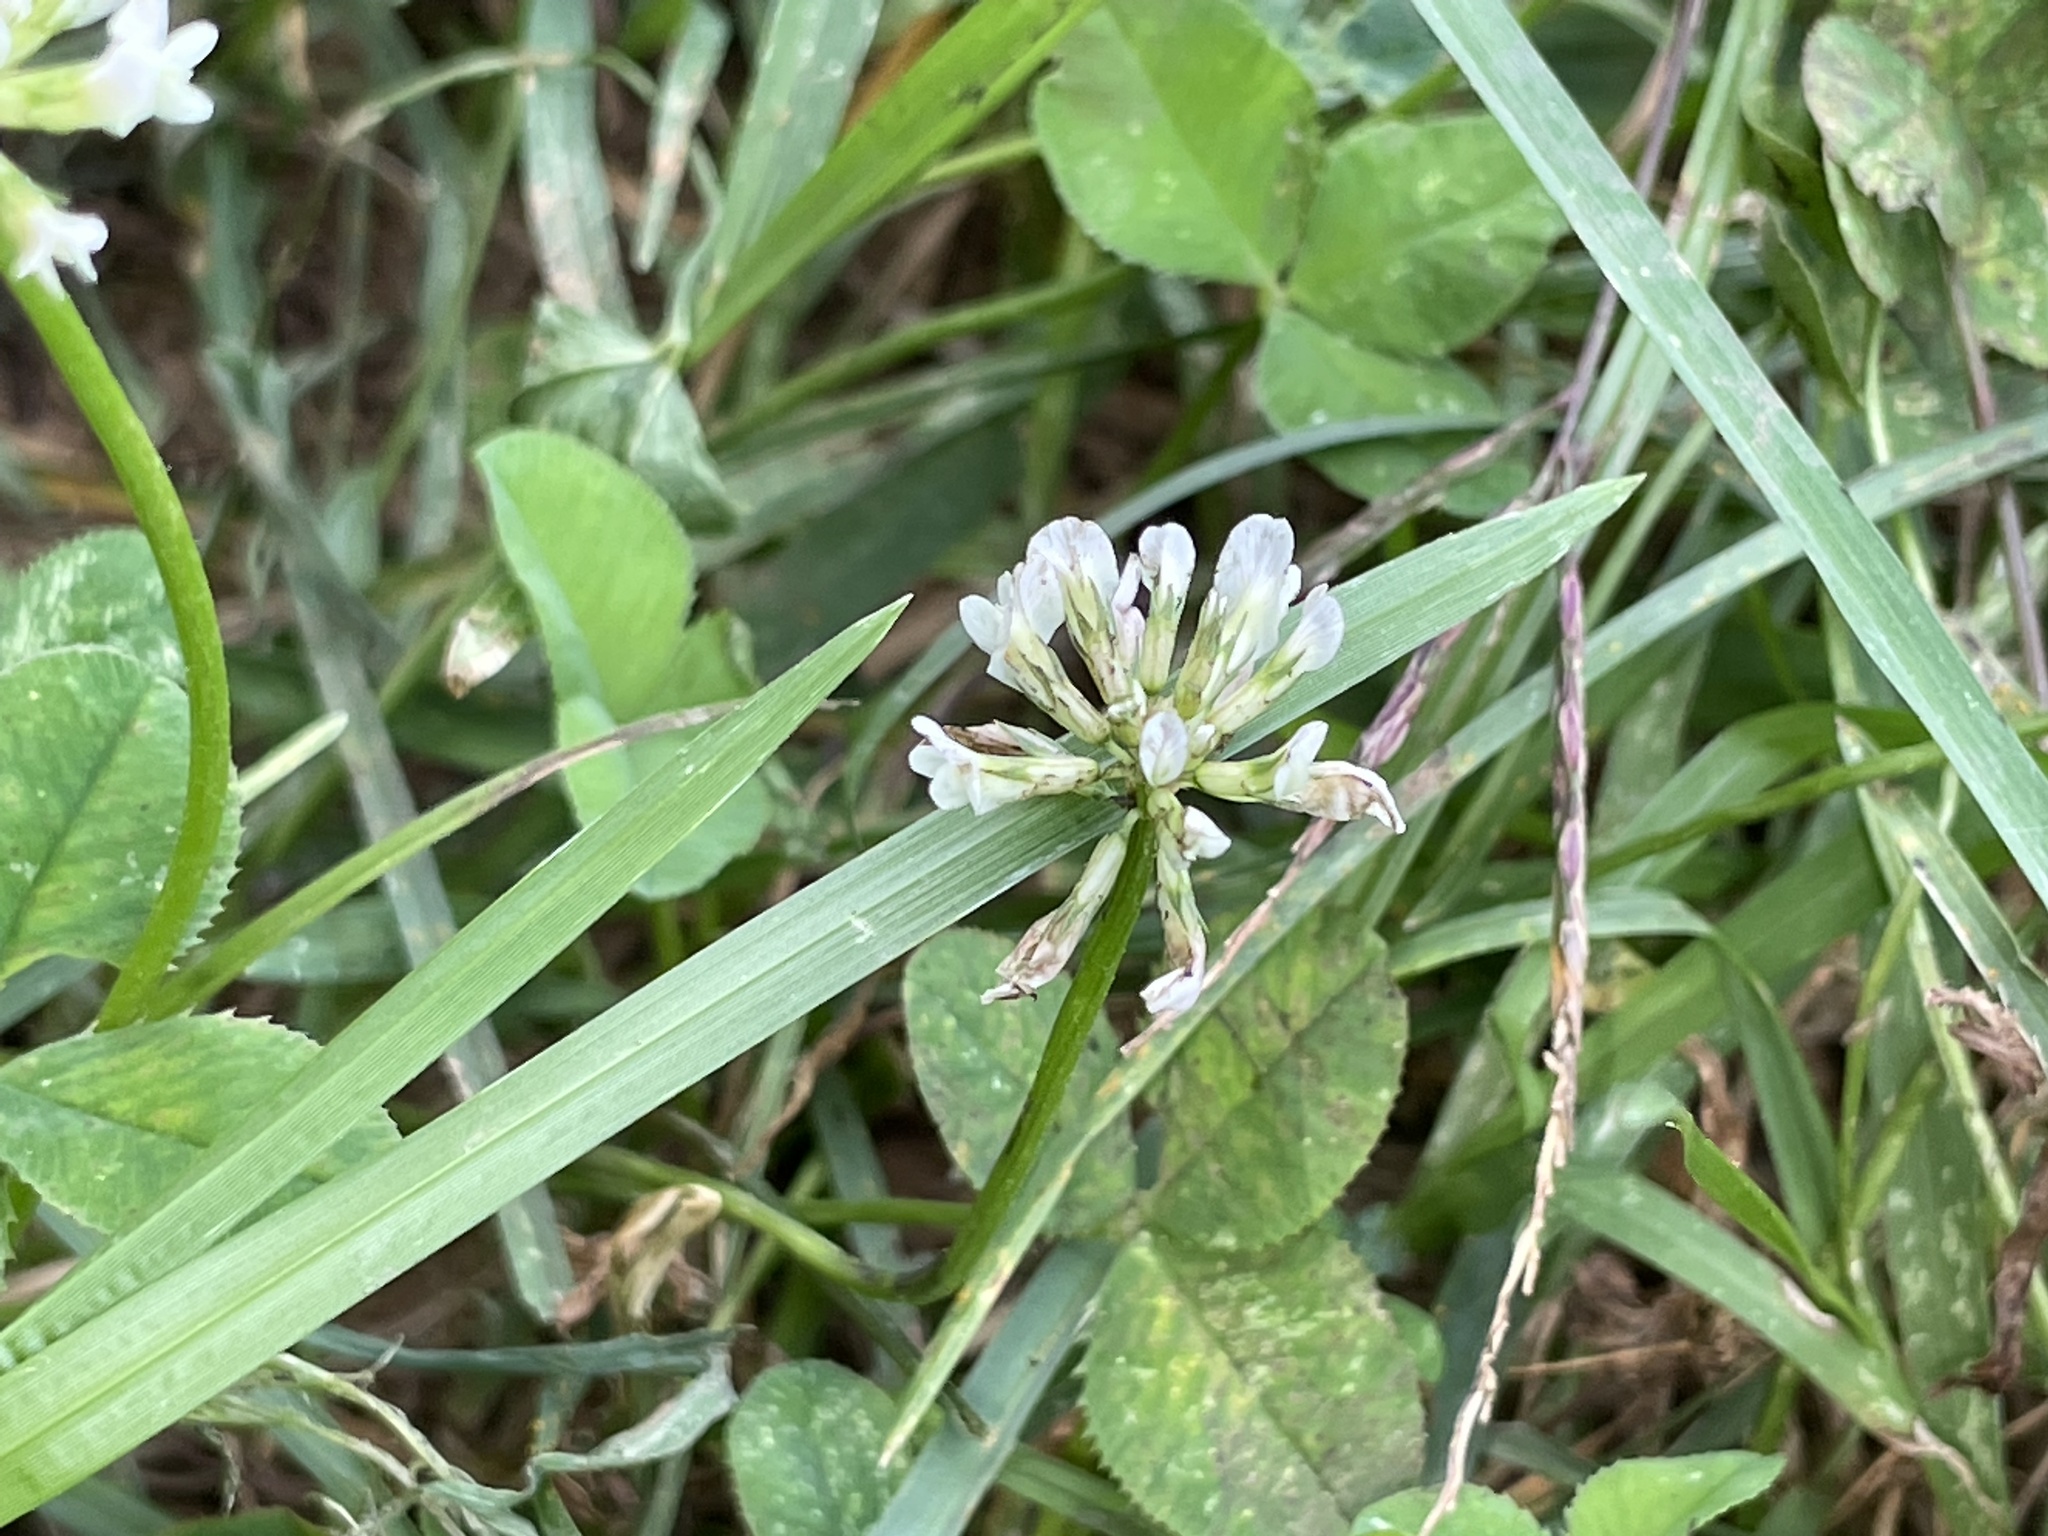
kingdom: Plantae
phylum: Tracheophyta
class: Magnoliopsida
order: Fabales
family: Fabaceae
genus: Trifolium
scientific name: Trifolium repens
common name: White clover
